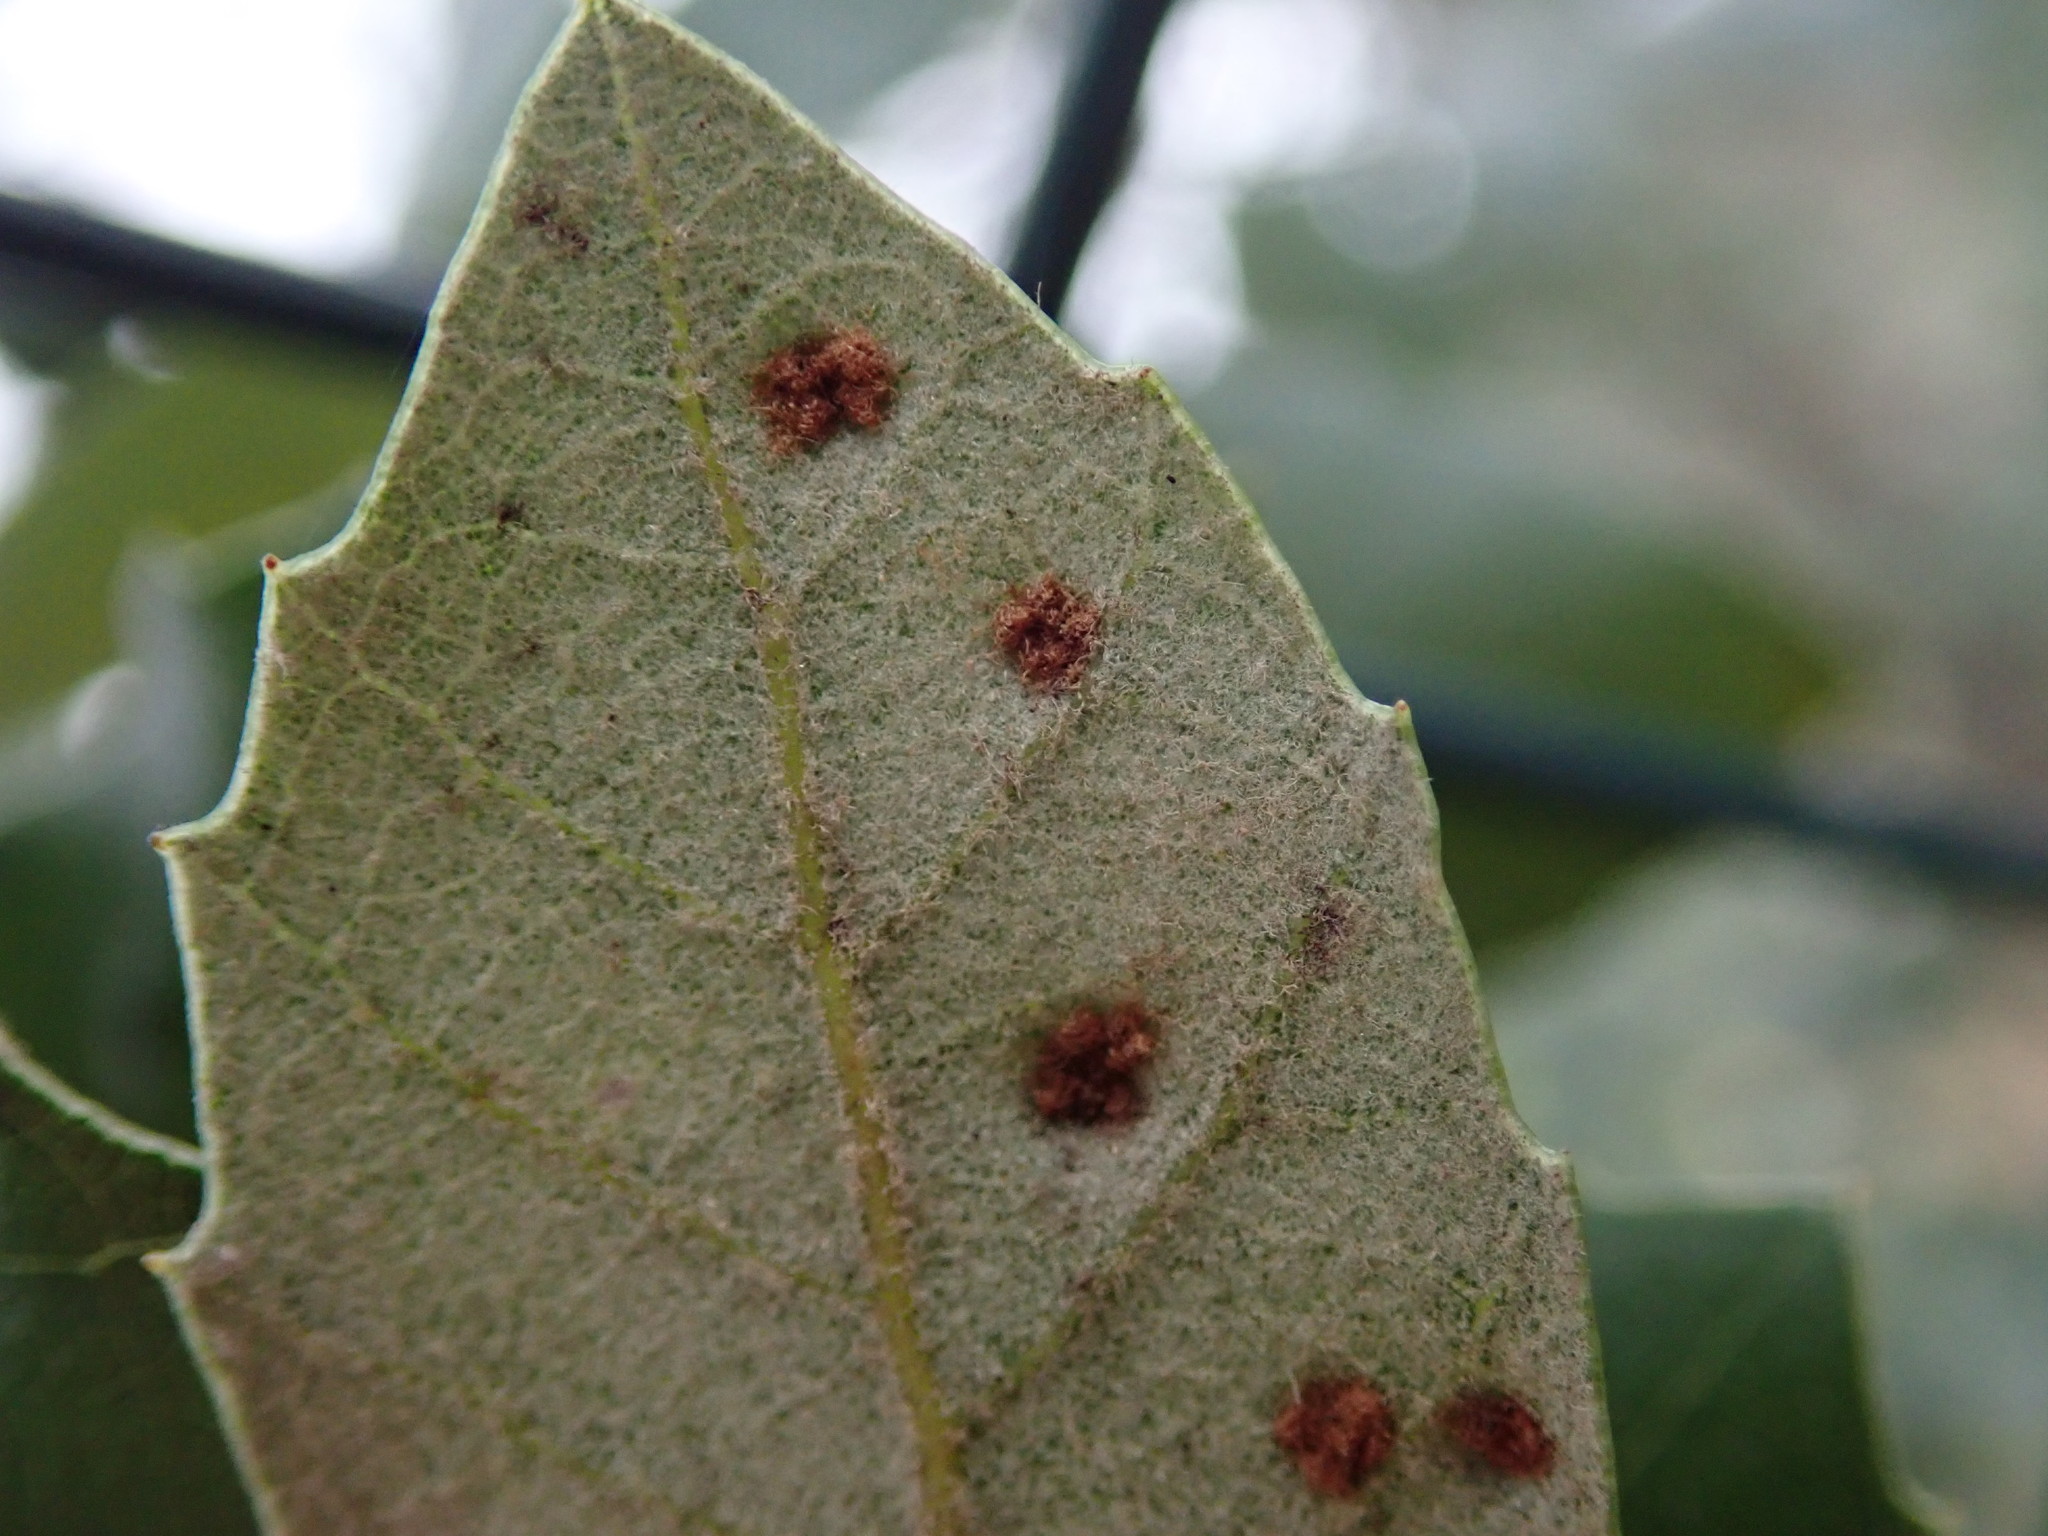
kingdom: Animalia
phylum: Arthropoda
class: Arachnida
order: Trombidiformes
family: Eriophyidae
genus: Aceria
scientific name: Aceria ilicis
